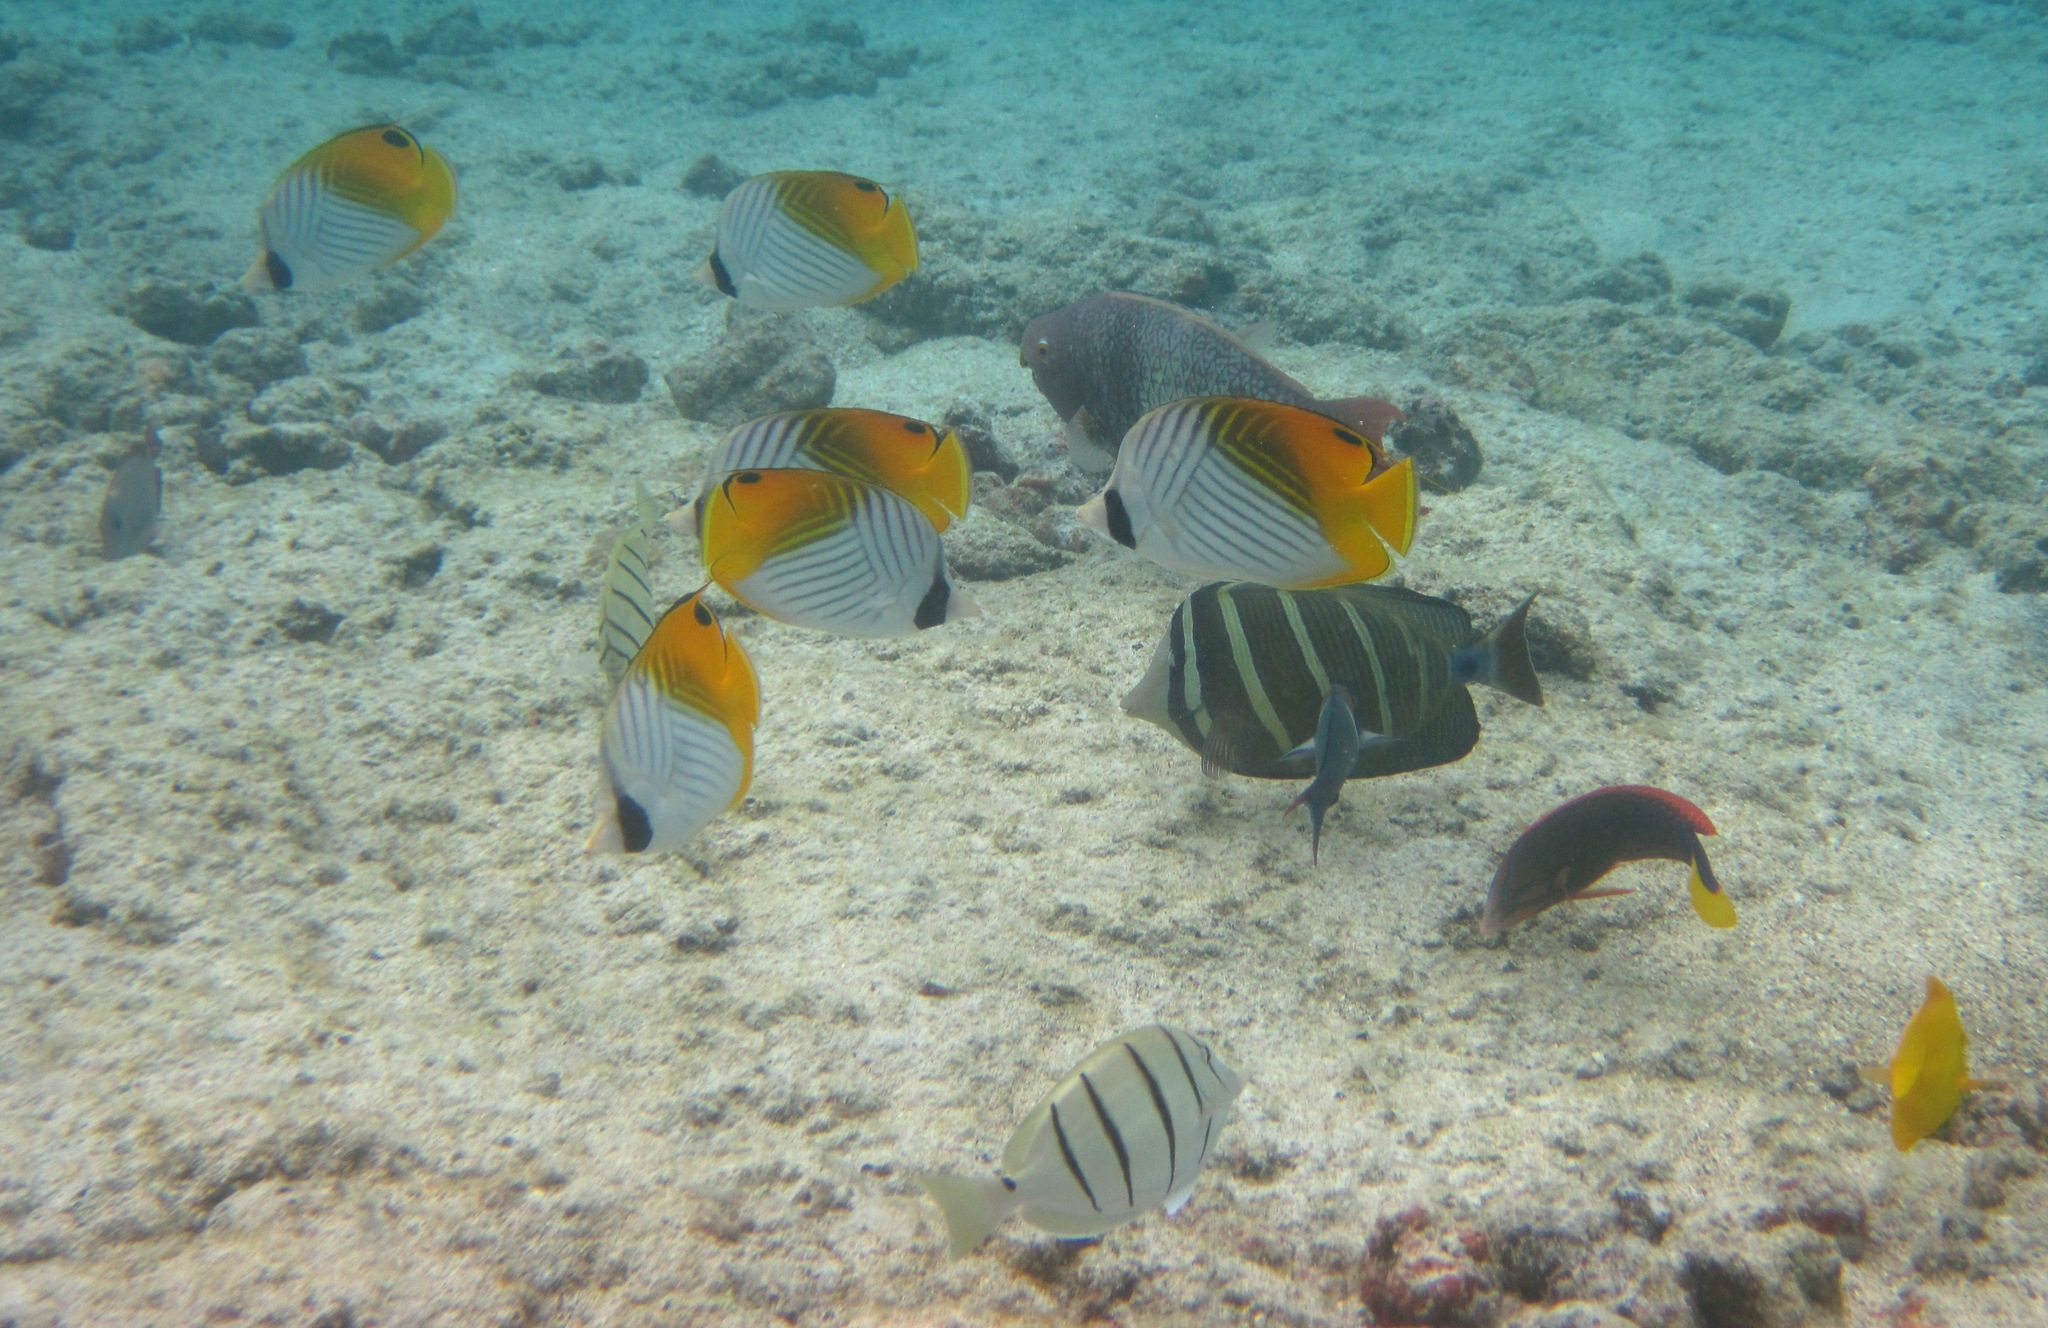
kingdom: Animalia
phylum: Chordata
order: Perciformes
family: Chaetodontidae
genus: Chaetodon
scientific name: Chaetodon auriga
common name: Threadfin butterflyfish
